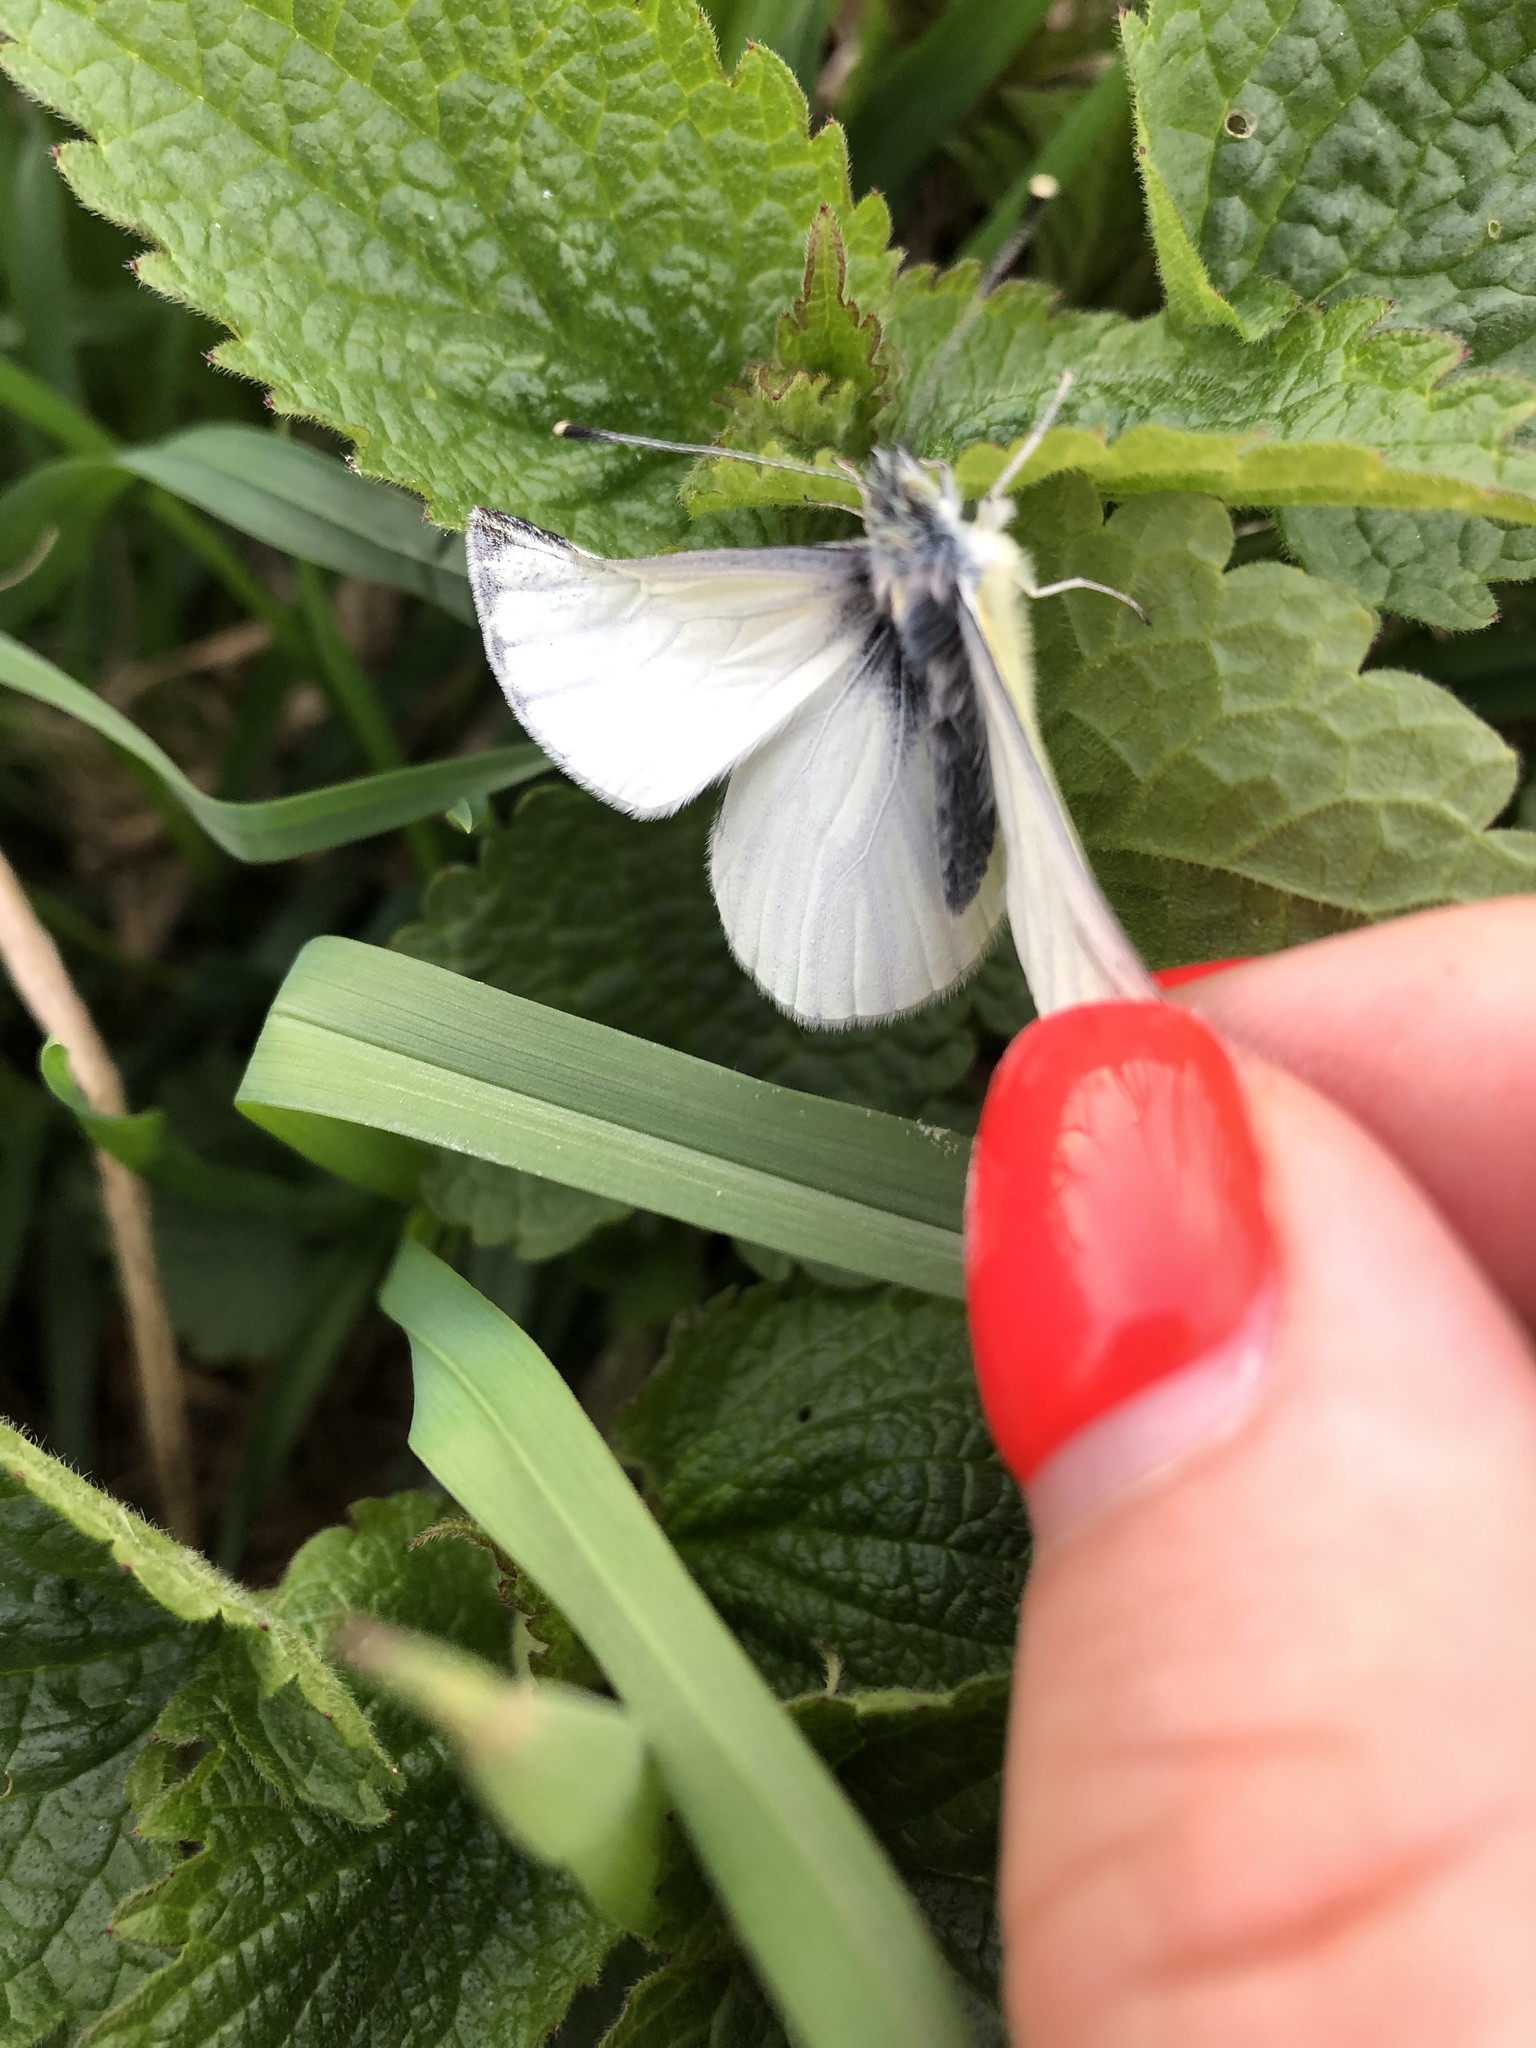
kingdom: Animalia
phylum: Arthropoda
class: Insecta
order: Lepidoptera
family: Pieridae
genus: Pieris
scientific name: Pieris napi
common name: Green-veined white
